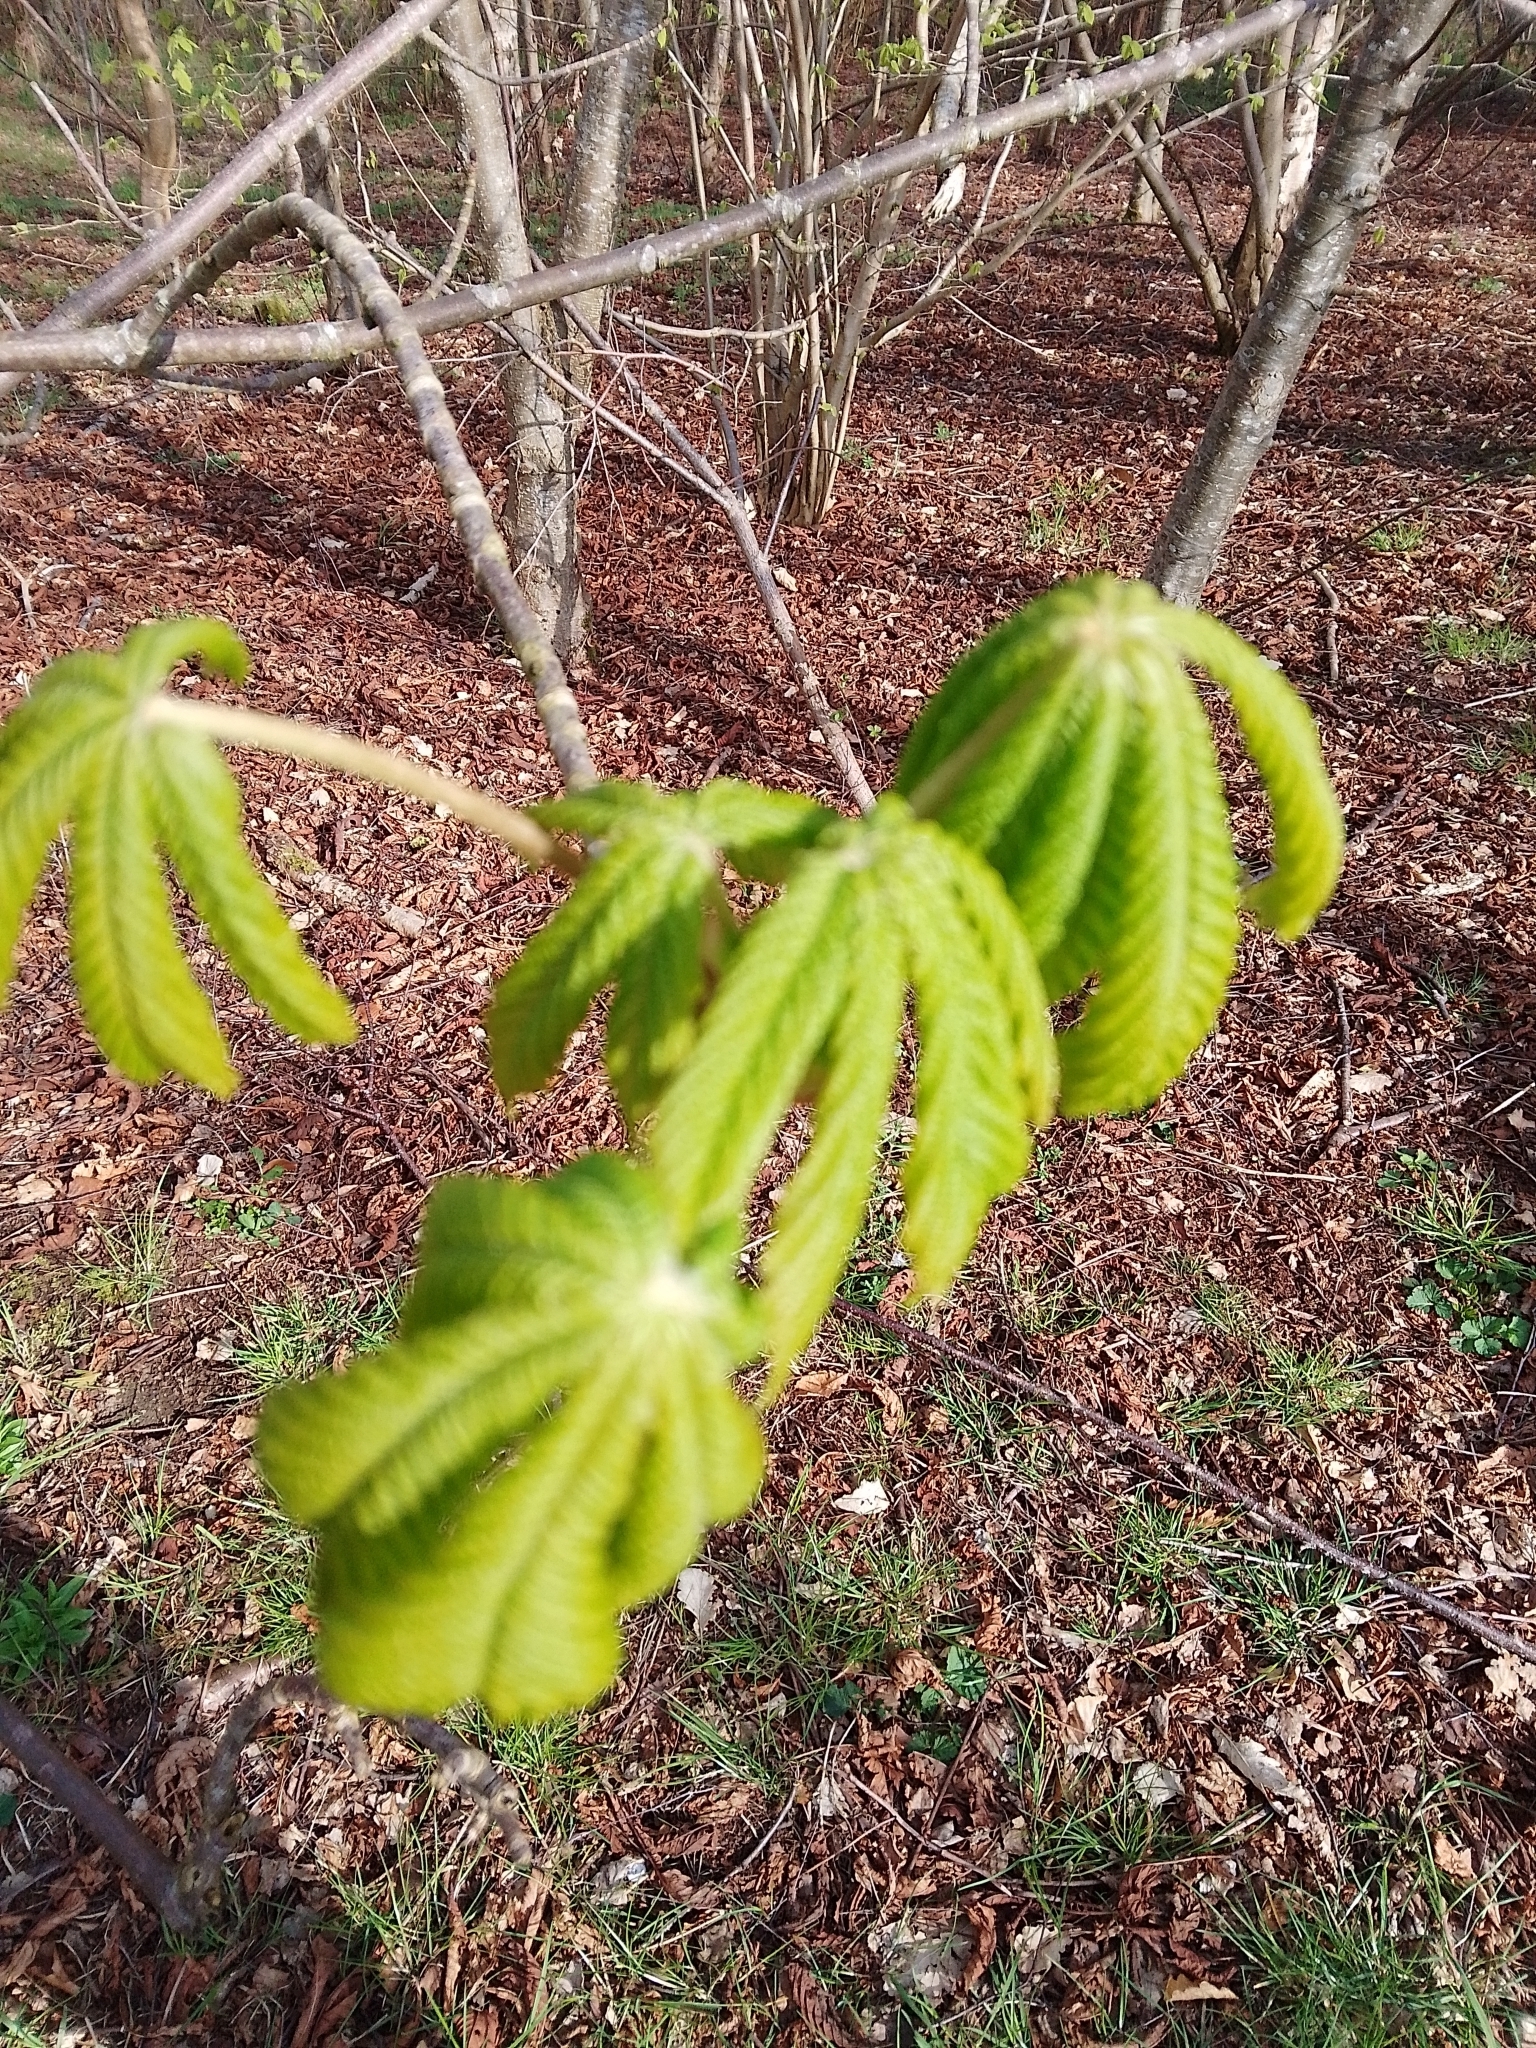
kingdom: Plantae
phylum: Tracheophyta
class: Magnoliopsida
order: Sapindales
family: Sapindaceae
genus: Aesculus
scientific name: Aesculus hippocastanum
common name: Horse-chestnut
